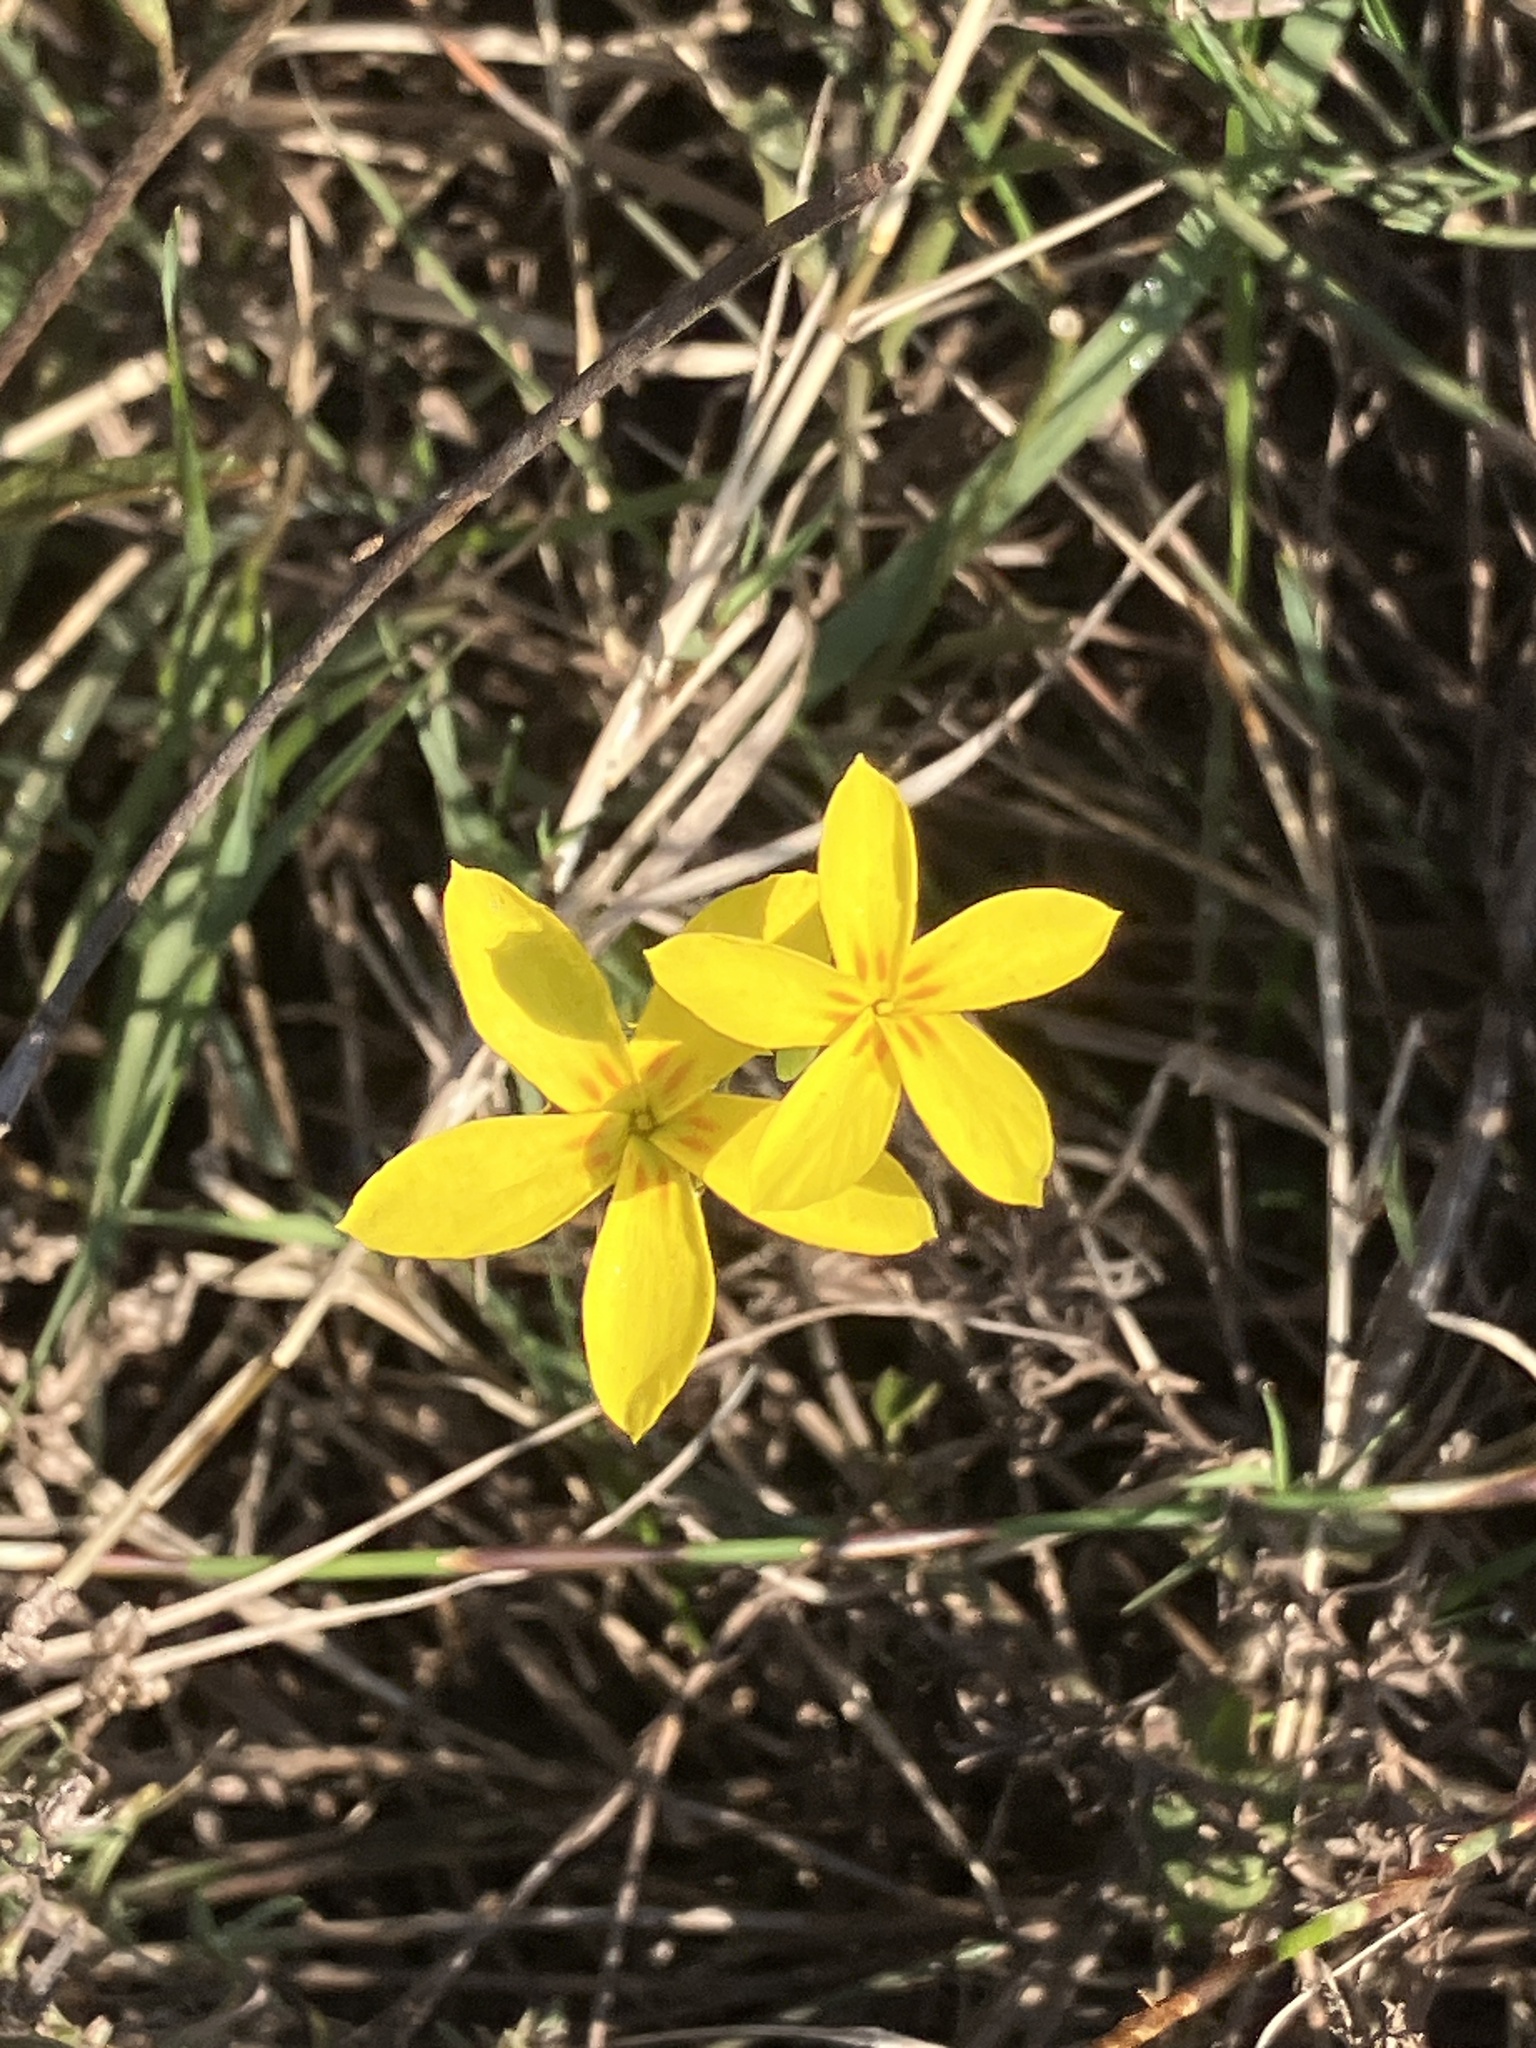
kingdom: Plantae
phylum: Tracheophyta
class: Magnoliopsida
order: Gentianales
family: Gentianaceae
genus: Sebaea
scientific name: Sebaea exacoides
